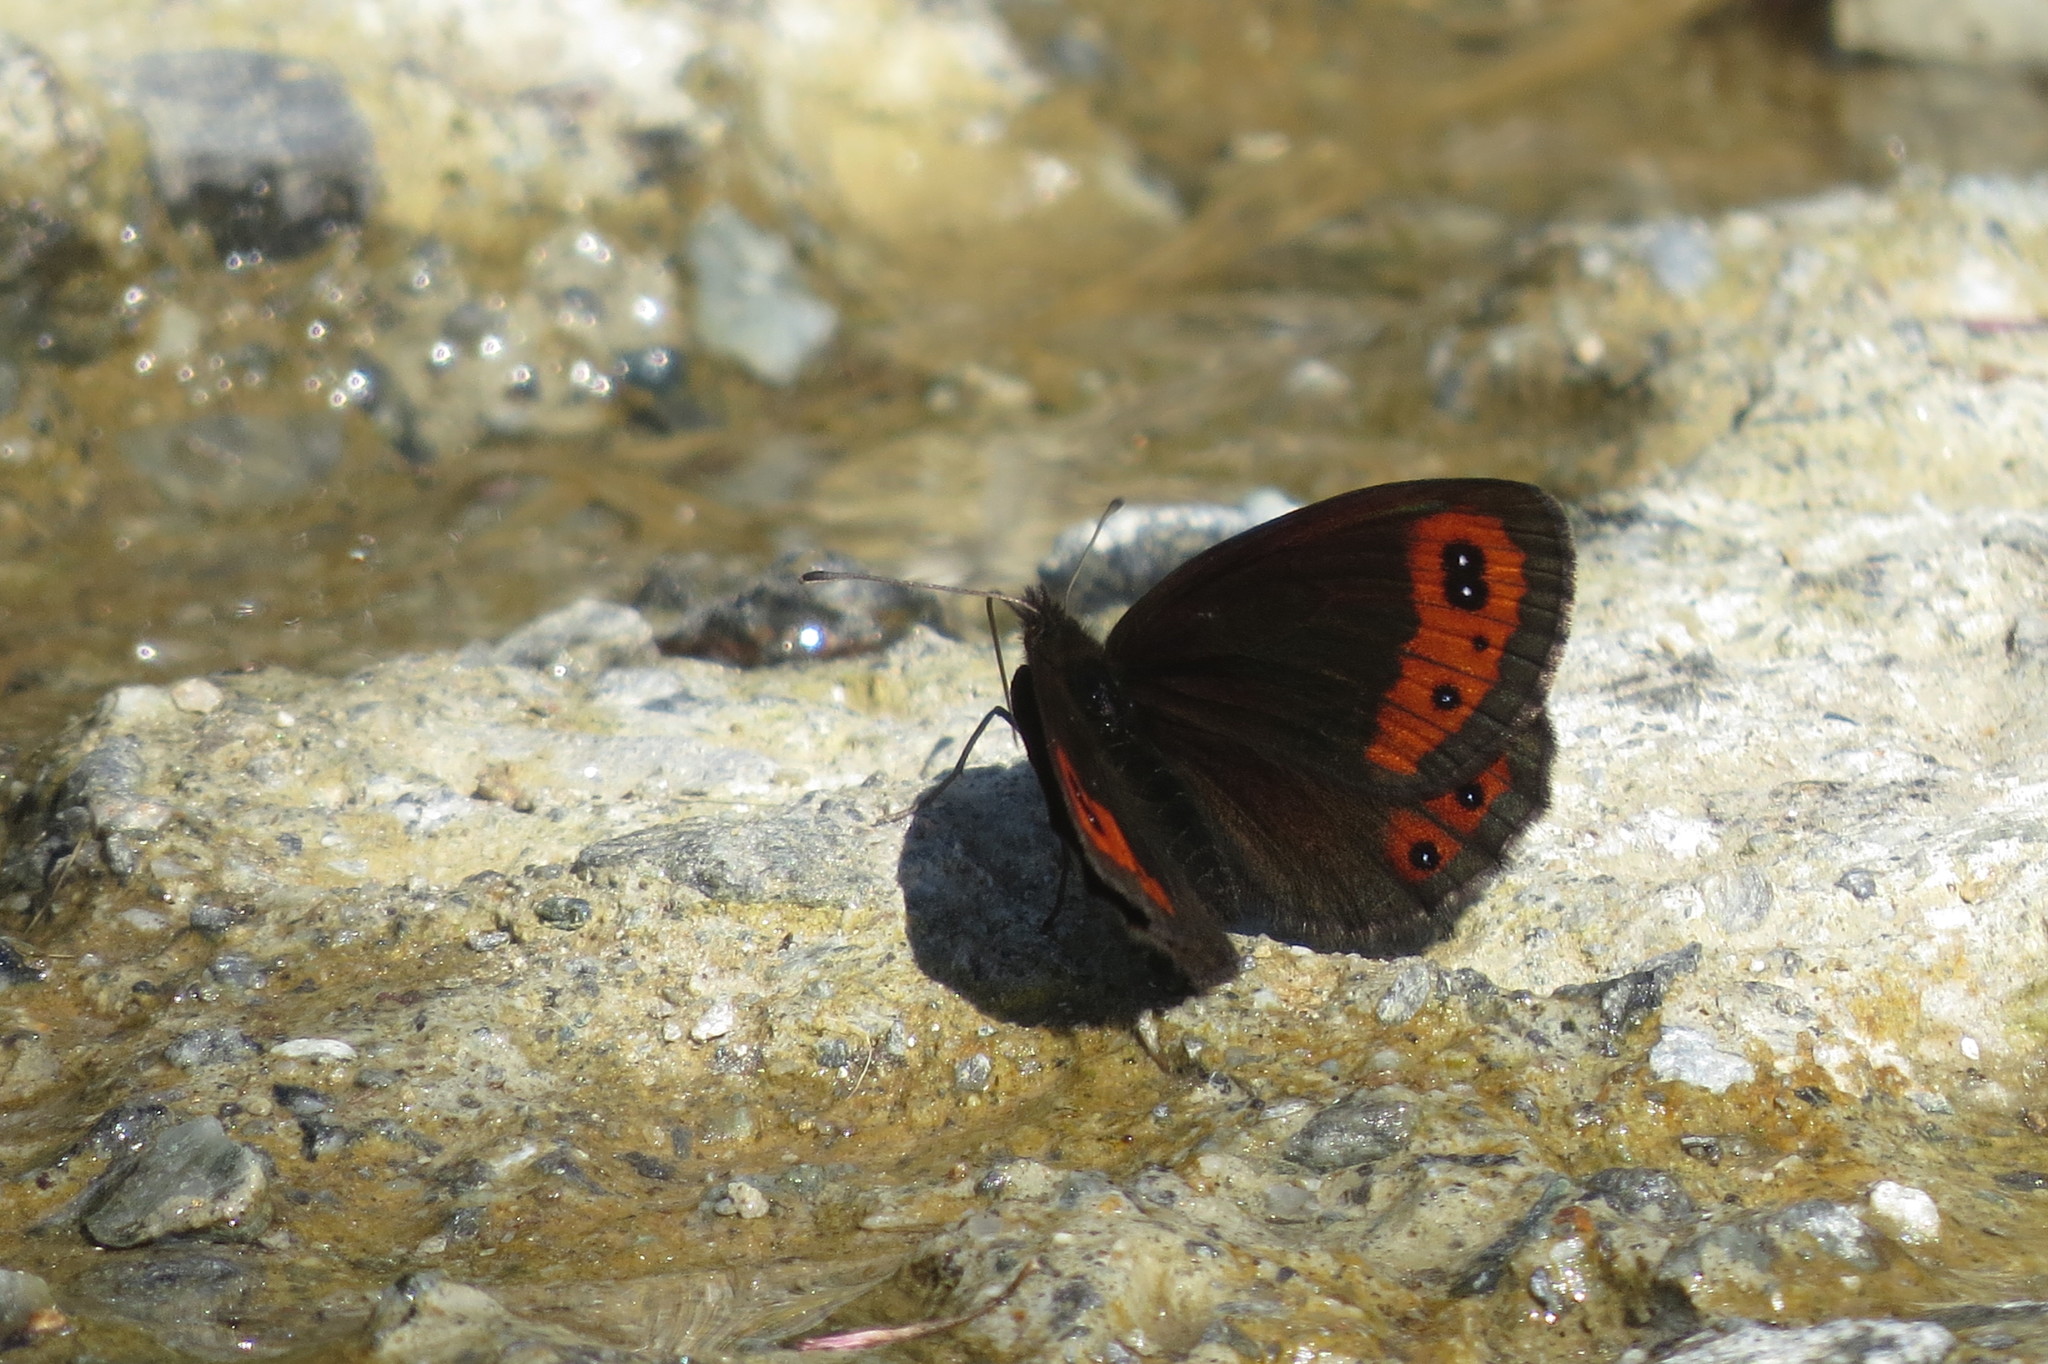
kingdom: Animalia
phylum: Arthropoda
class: Insecta
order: Lepidoptera
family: Nymphalidae
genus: Erebia
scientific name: Erebia montanus
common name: Marbled ringlet
